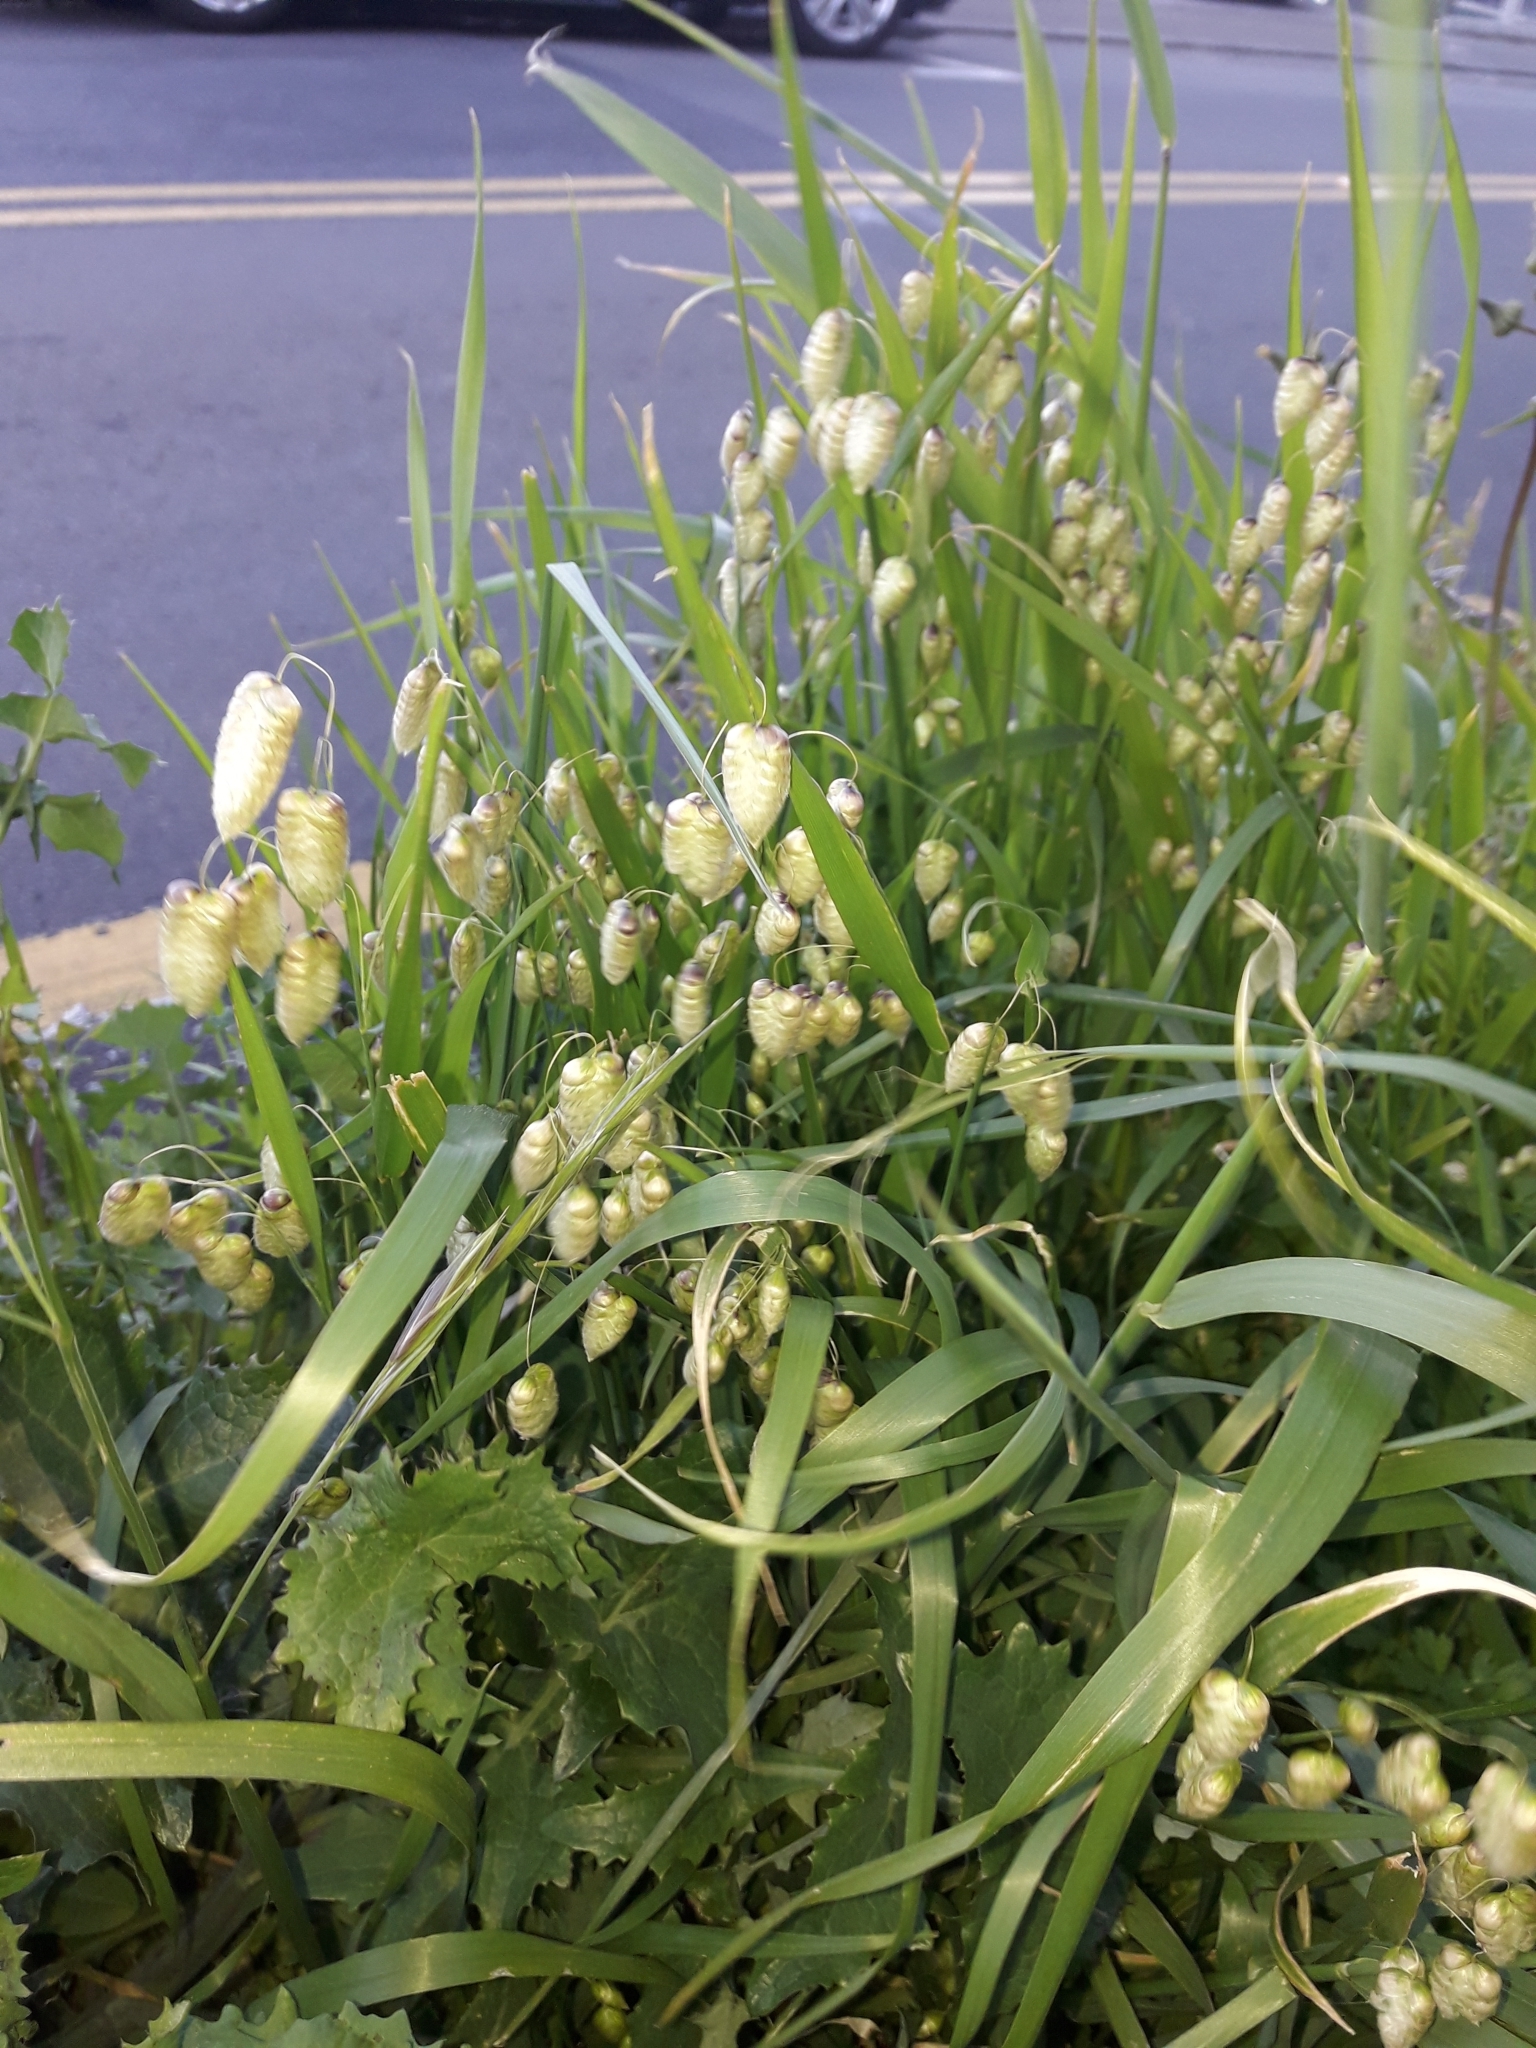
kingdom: Plantae
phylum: Tracheophyta
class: Liliopsida
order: Poales
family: Poaceae
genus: Briza
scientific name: Briza maxima
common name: Big quakinggrass
